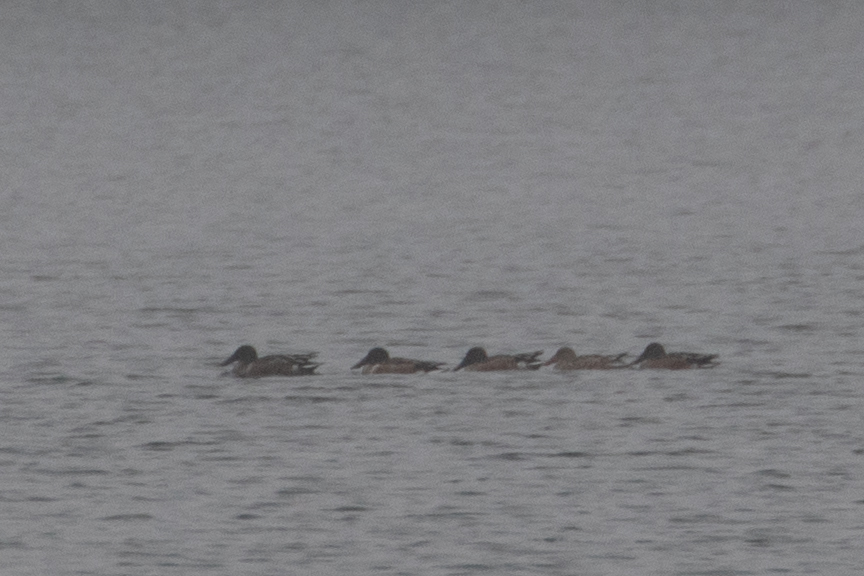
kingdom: Animalia
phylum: Chordata
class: Aves
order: Anseriformes
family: Anatidae
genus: Spatula
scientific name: Spatula clypeata
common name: Northern shoveler
